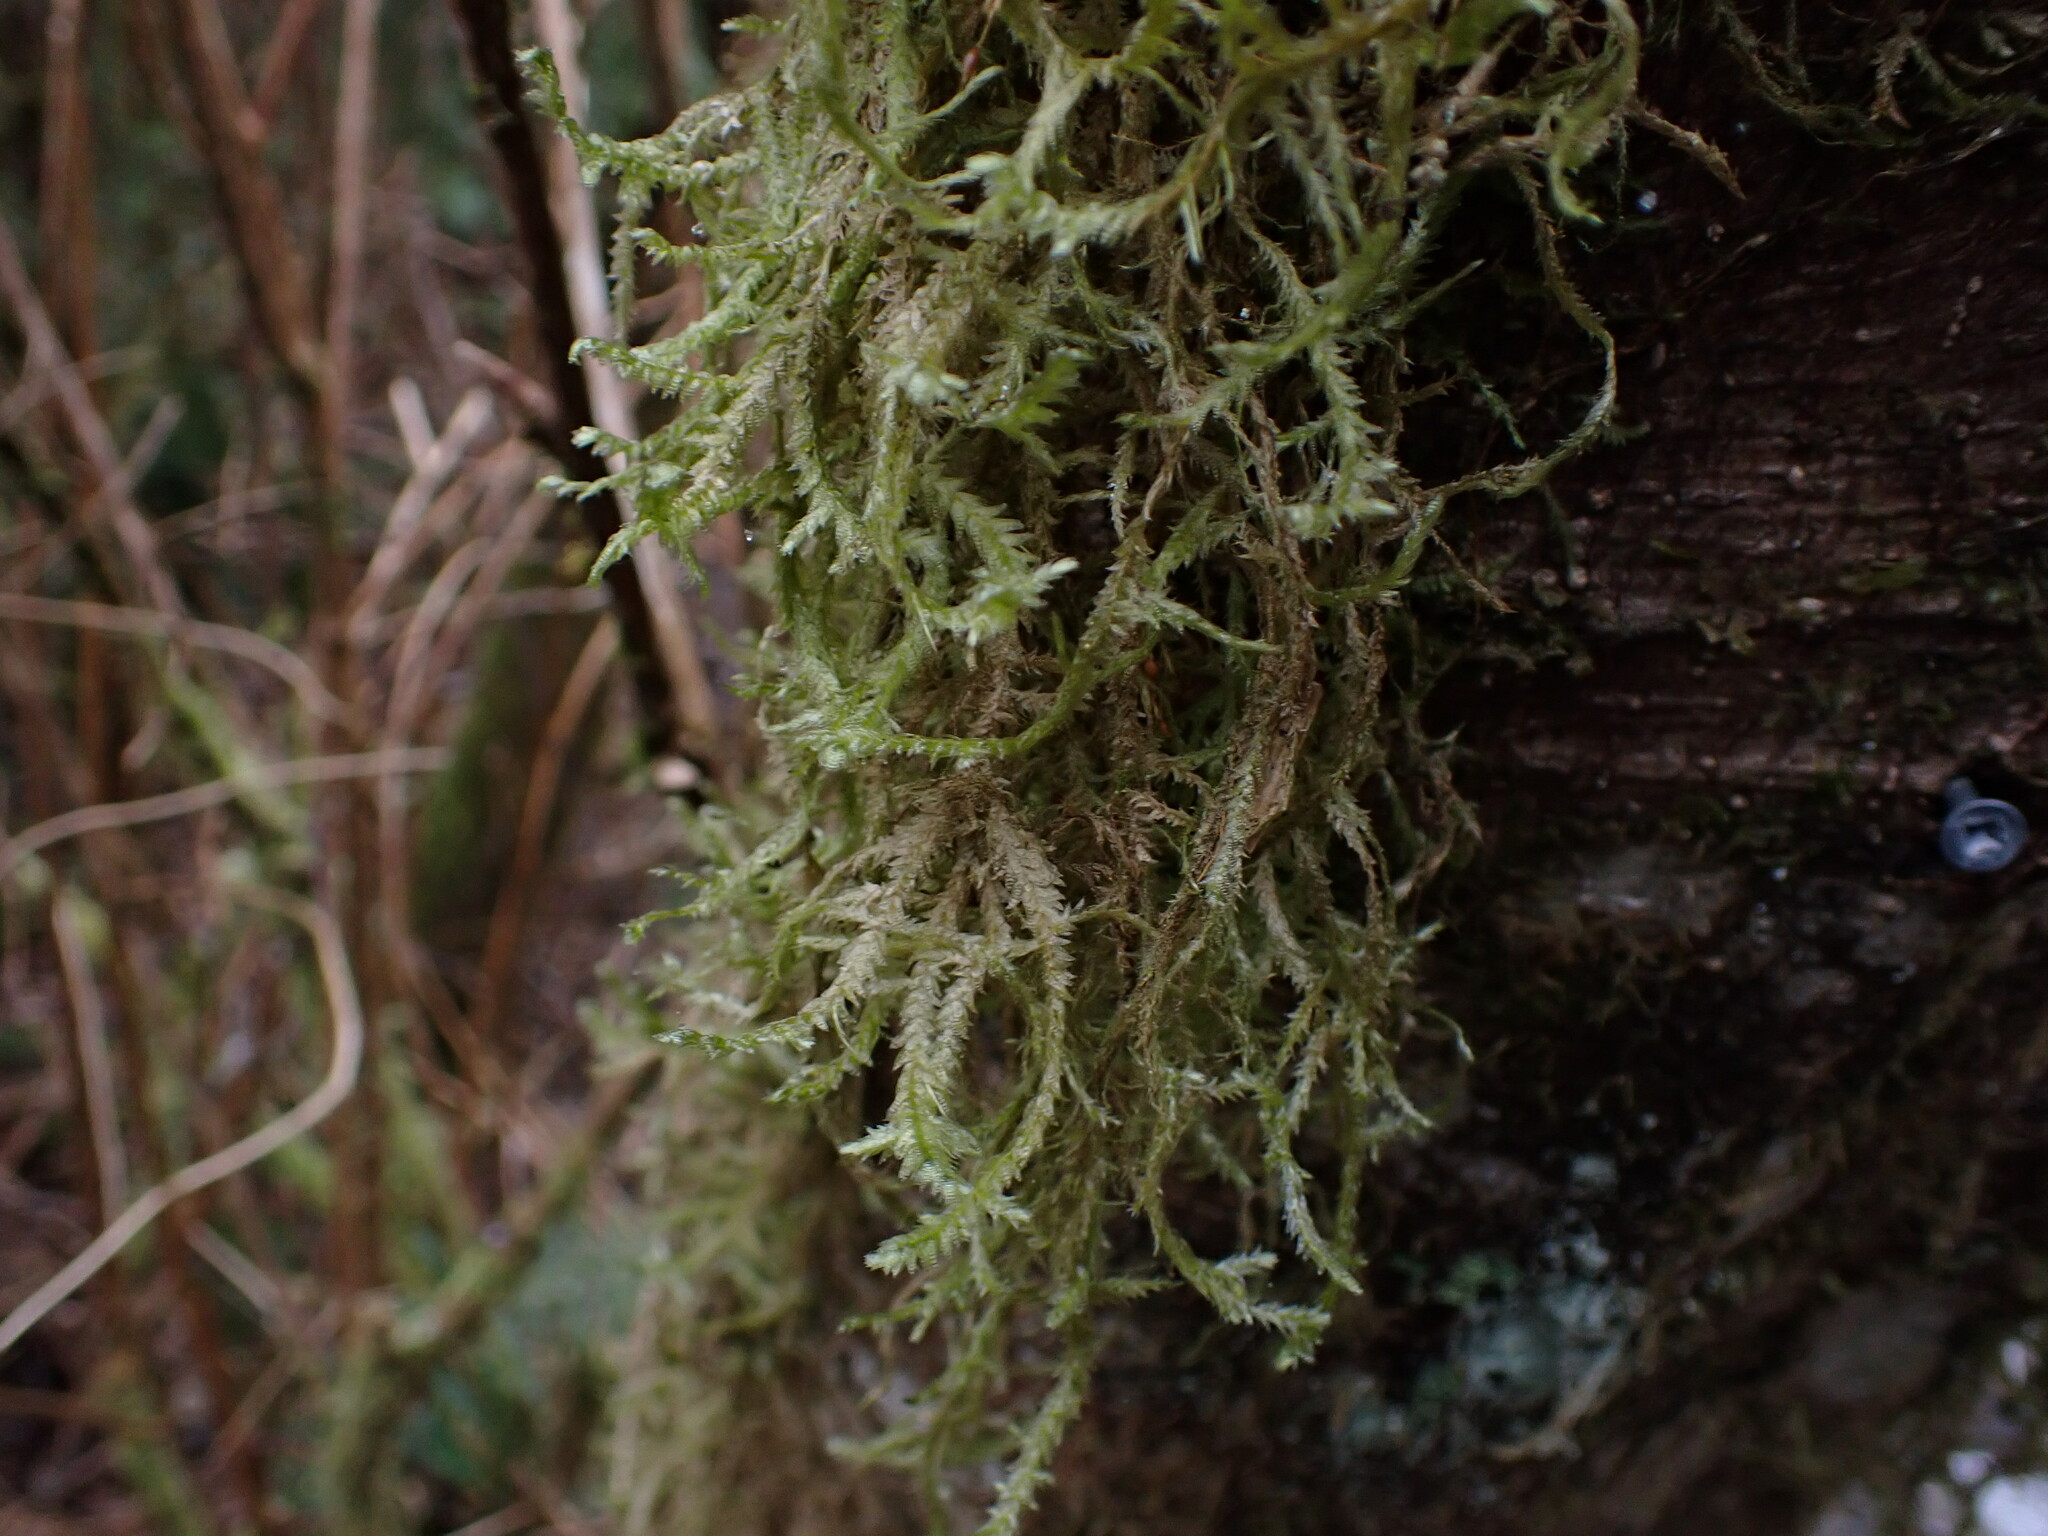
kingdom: Plantae
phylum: Bryophyta
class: Bryopsida
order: Hypnales
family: Neckeraceae
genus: Neckera
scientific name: Neckera douglasii
